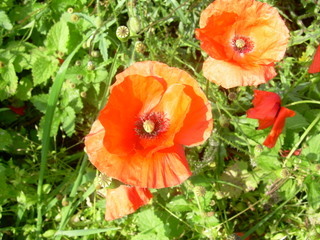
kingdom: Plantae
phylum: Tracheophyta
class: Magnoliopsida
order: Ranunculales
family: Papaveraceae
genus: Papaver
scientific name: Papaver rhoeas
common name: Corn poppy
